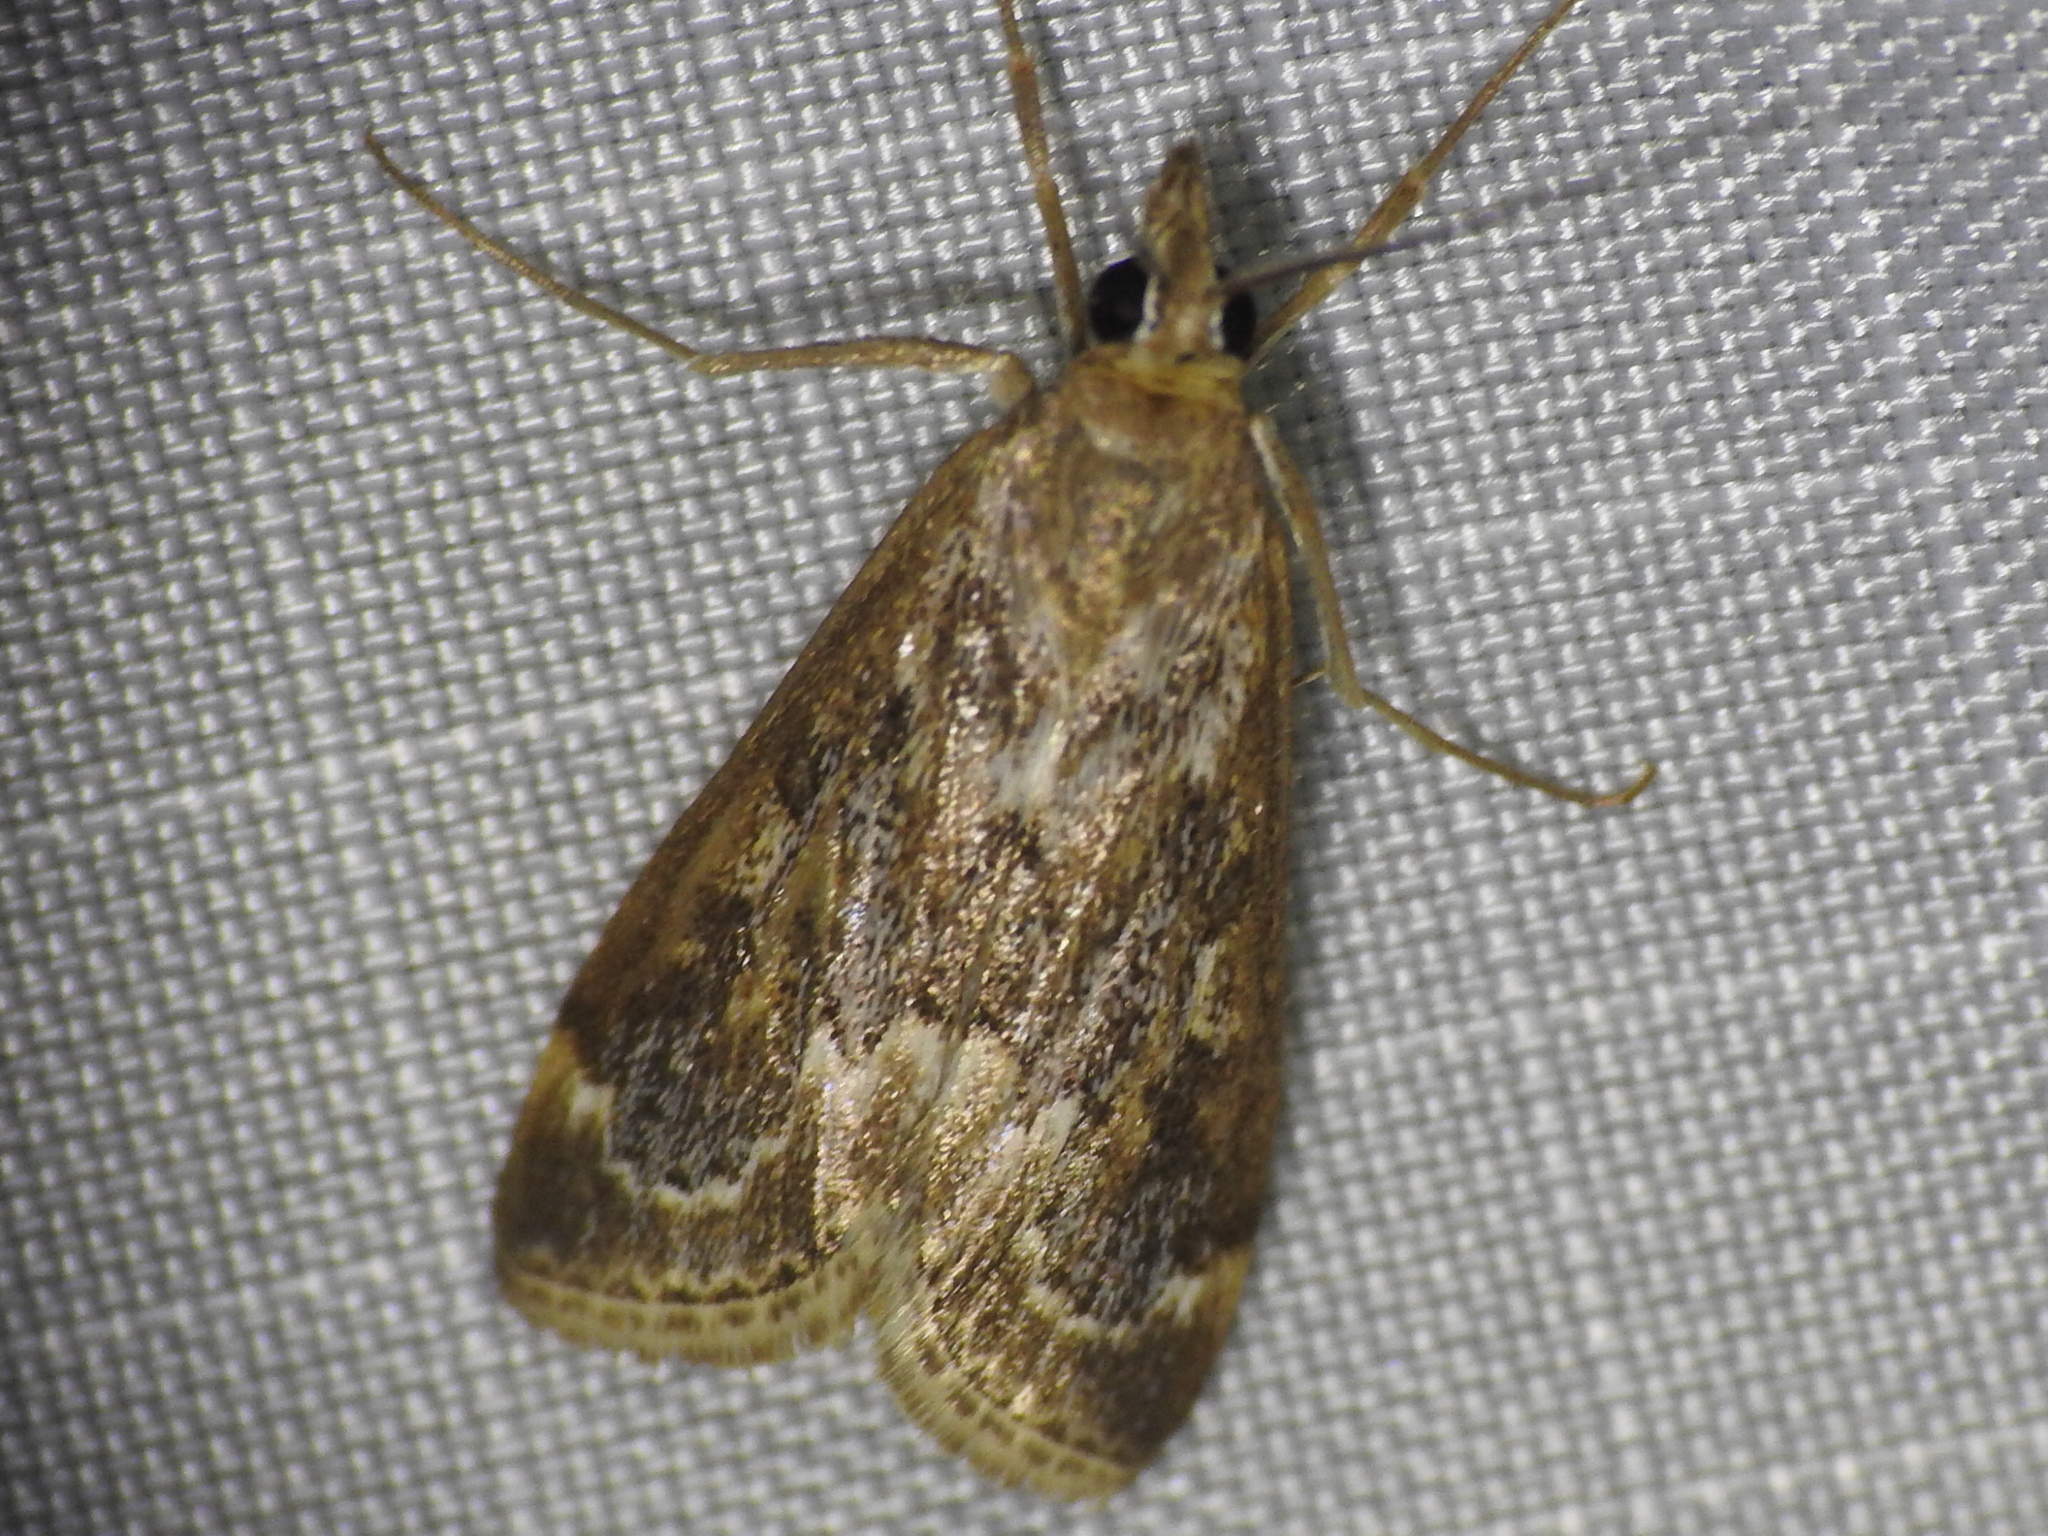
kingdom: Animalia
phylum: Arthropoda
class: Insecta
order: Lepidoptera
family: Crambidae
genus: Loxostege
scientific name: Loxostege allectalis
